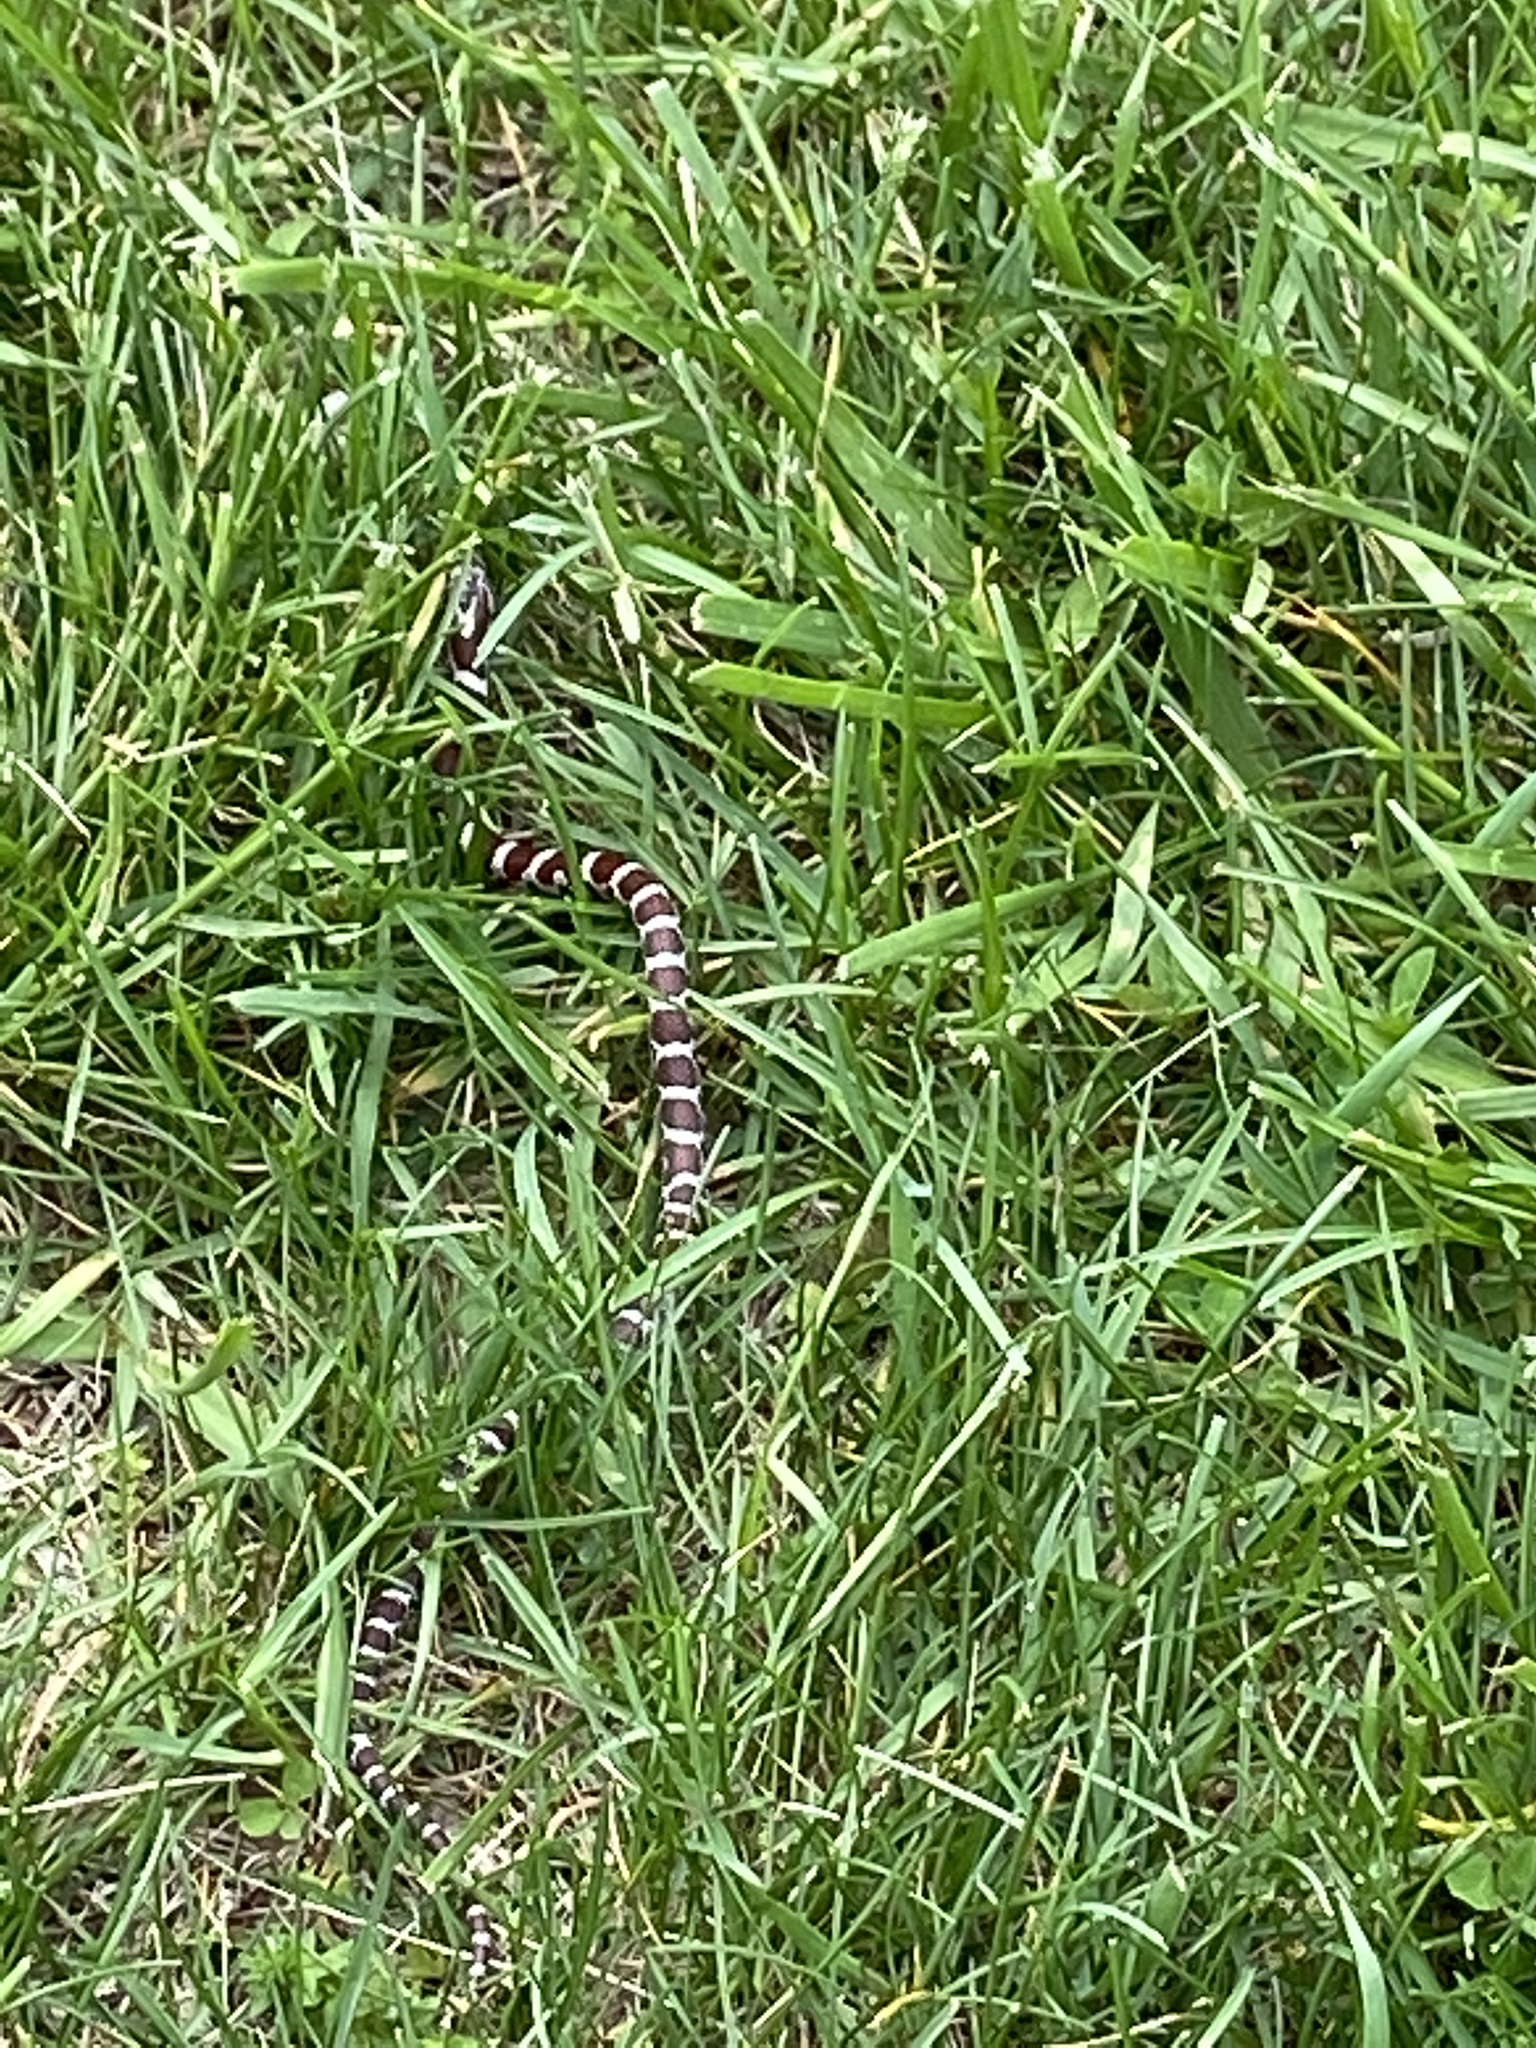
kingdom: Animalia
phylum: Chordata
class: Squamata
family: Colubridae
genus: Lampropeltis
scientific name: Lampropeltis triangulum
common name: Eastern milksnake
